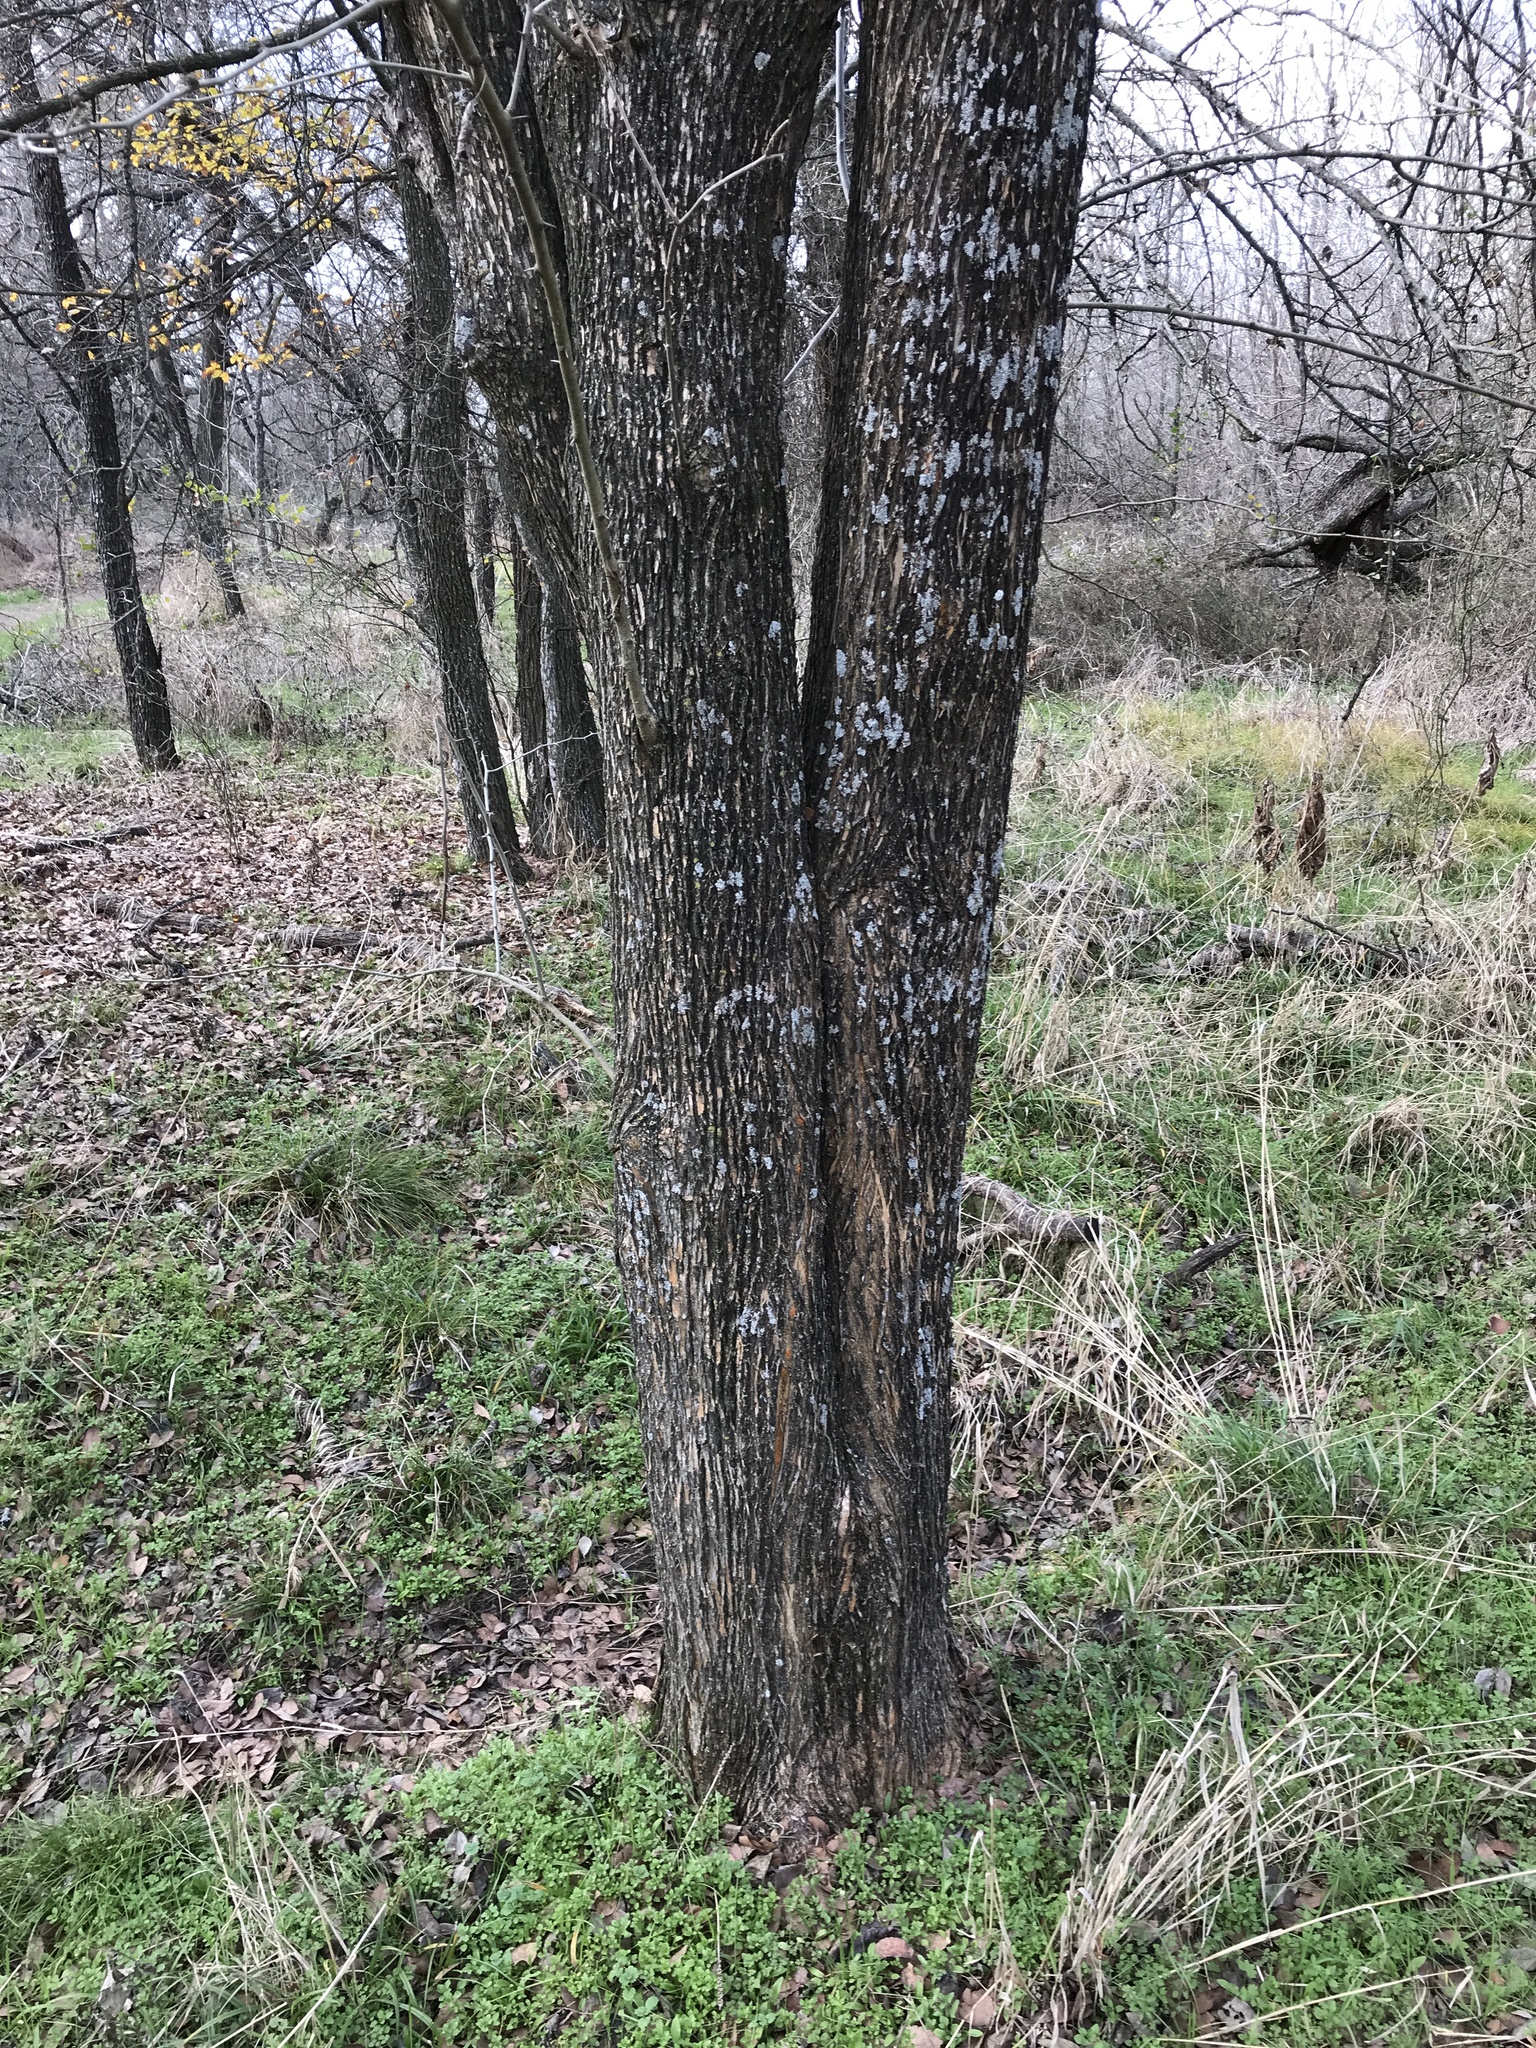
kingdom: Plantae
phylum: Tracheophyta
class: Magnoliopsida
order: Rosales
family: Moraceae
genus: Maclura
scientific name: Maclura pomifera
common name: Osage-orange
